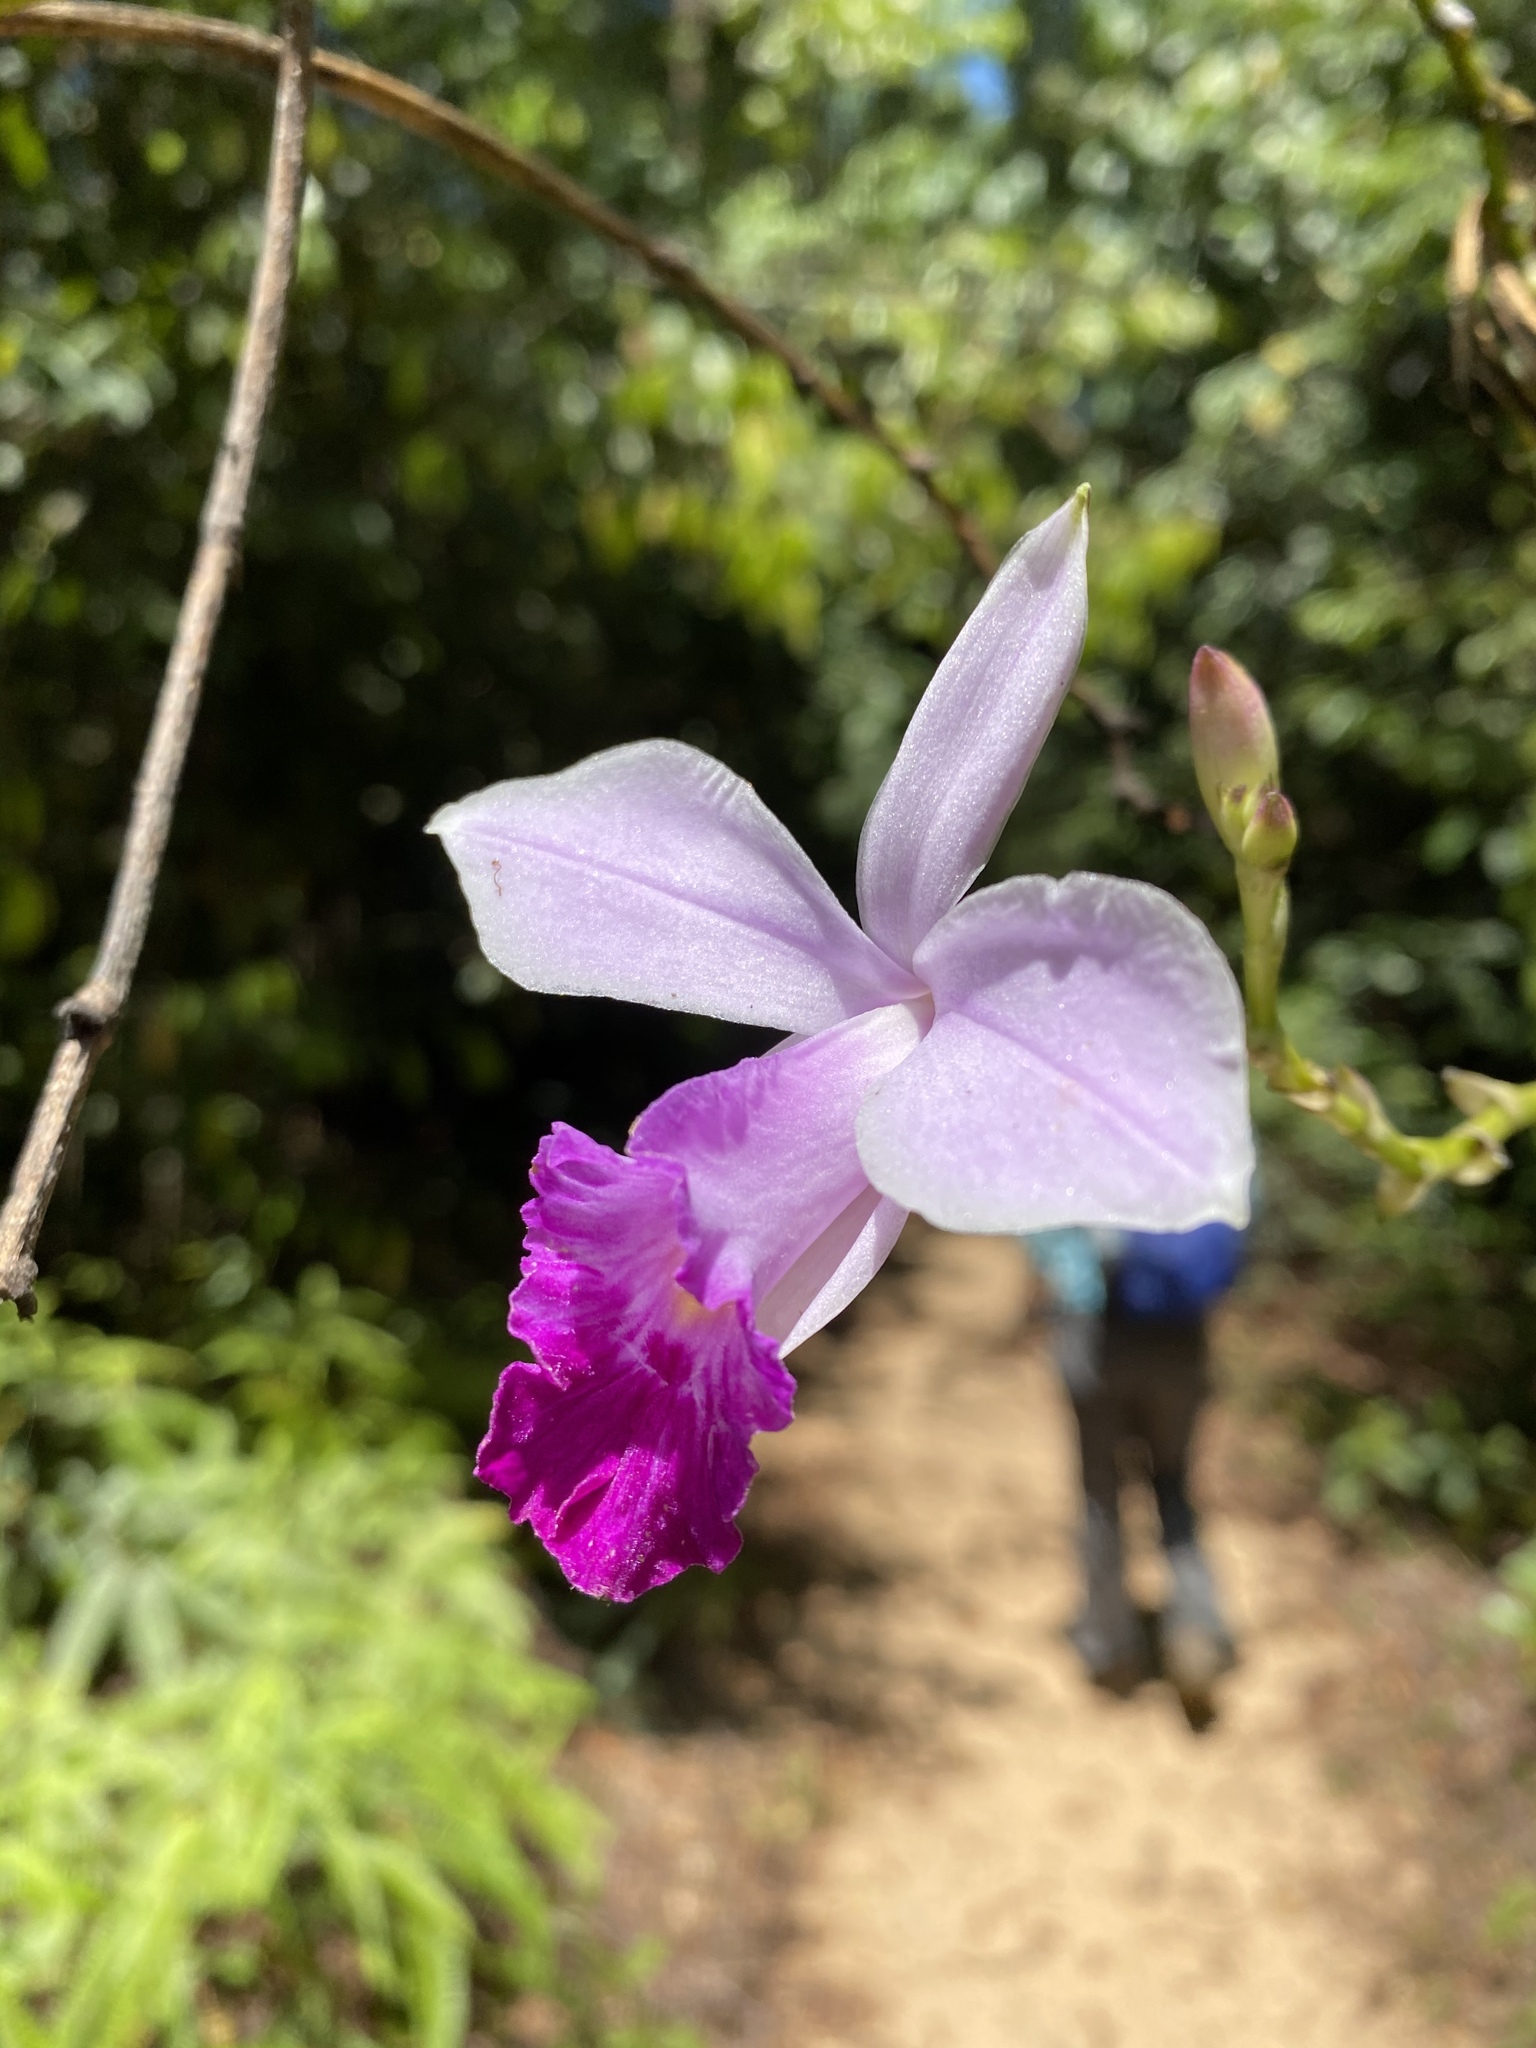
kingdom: Plantae
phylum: Tracheophyta
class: Liliopsida
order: Asparagales
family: Orchidaceae
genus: Arundina
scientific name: Arundina graminifolia
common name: Bamboo orchid
